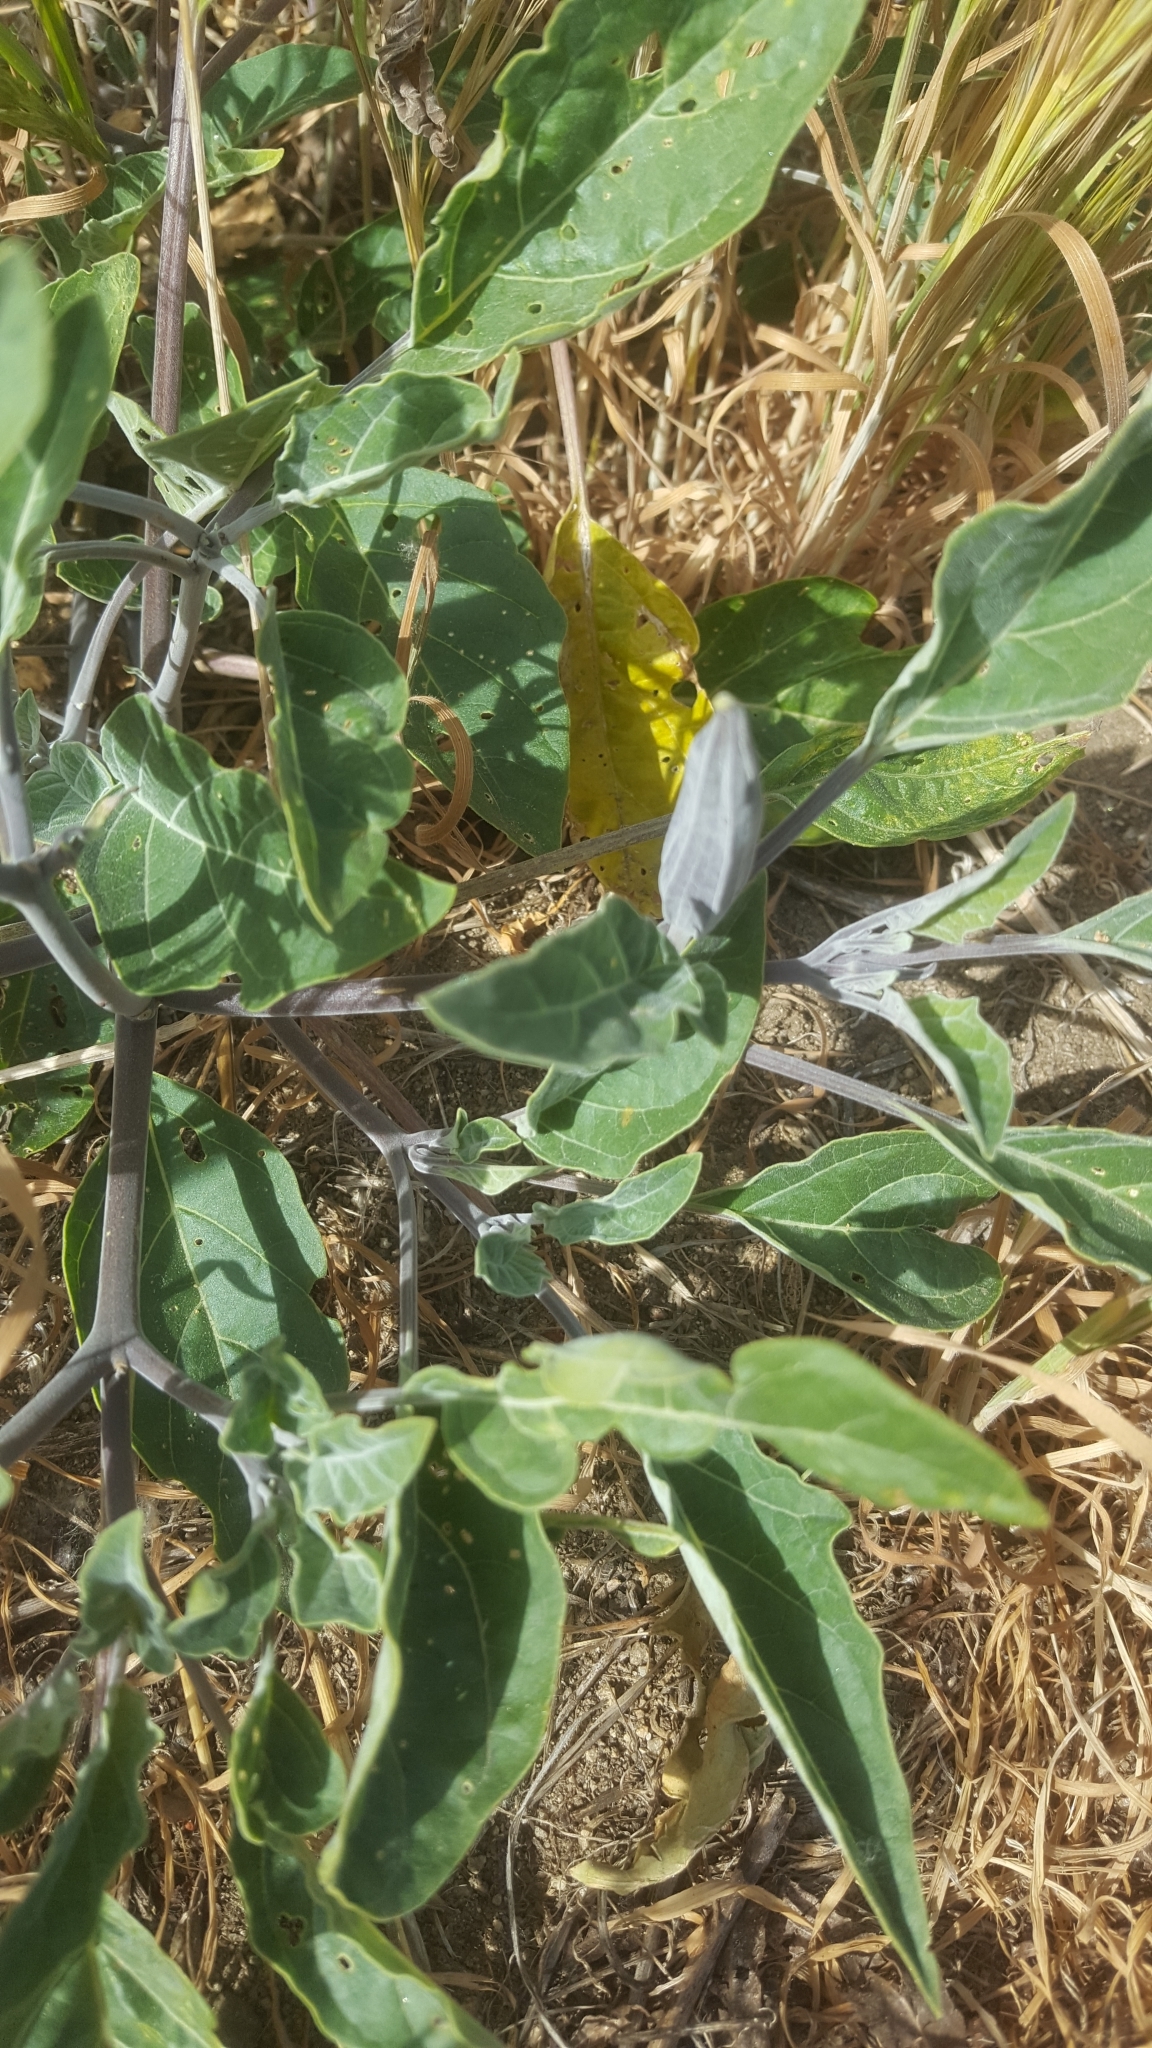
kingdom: Plantae
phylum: Tracheophyta
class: Magnoliopsida
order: Solanales
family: Solanaceae
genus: Datura
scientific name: Datura wrightii
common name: Sacred thorn-apple
